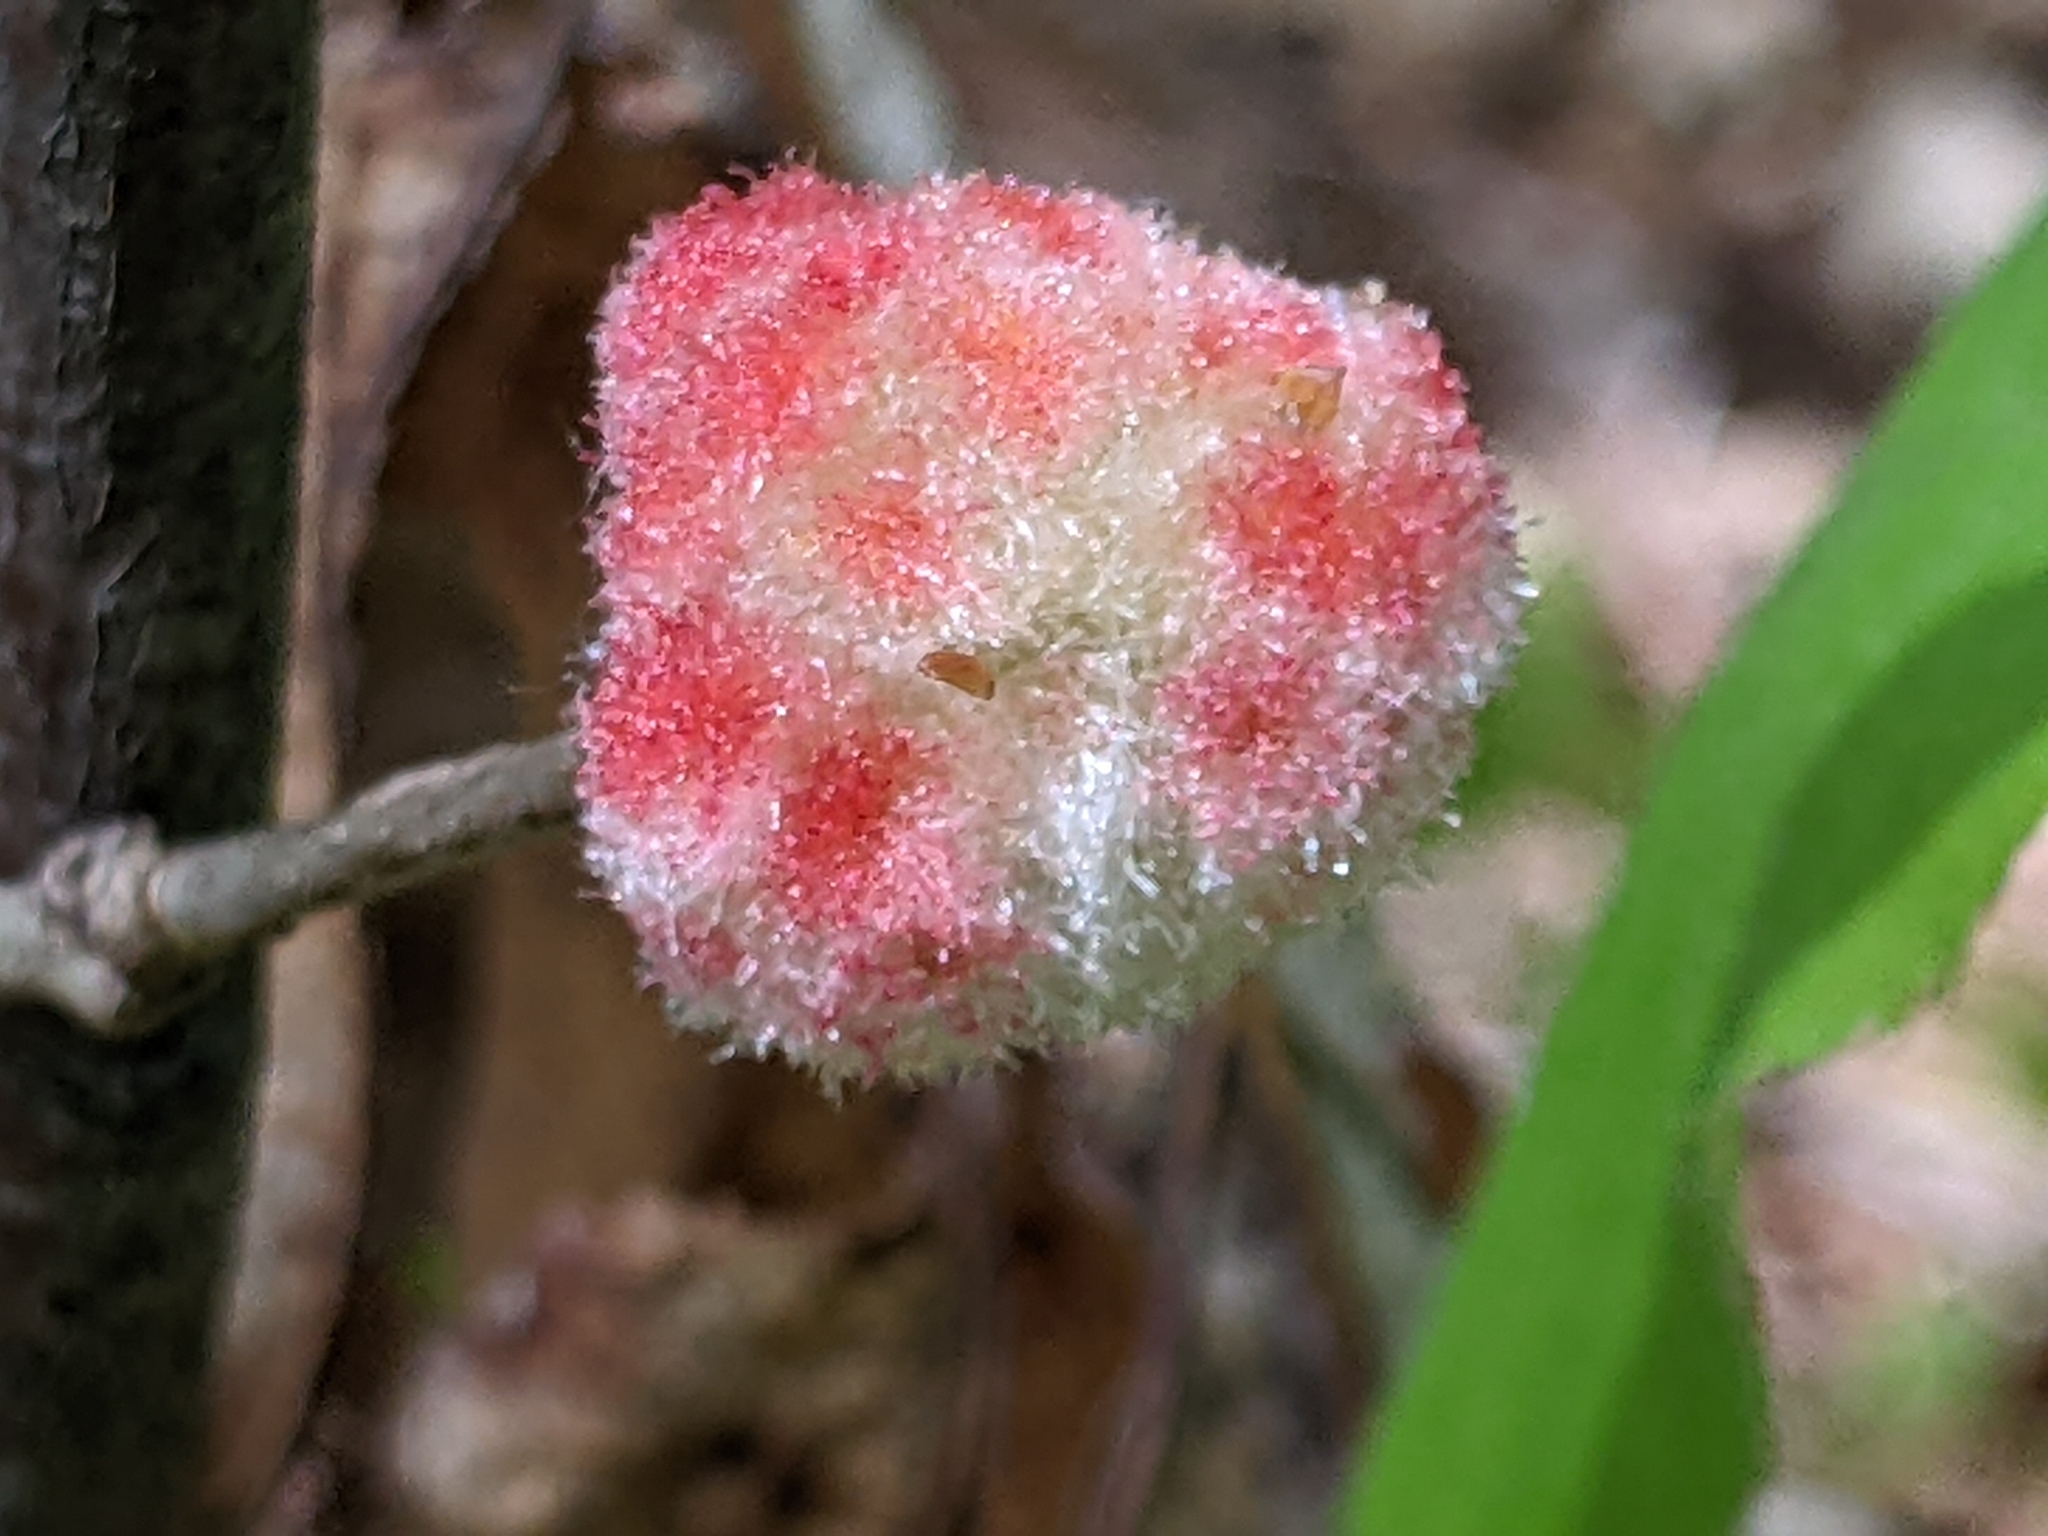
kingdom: Animalia
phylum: Arthropoda
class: Insecta
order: Hymenoptera
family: Cynipidae
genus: Callirhytis
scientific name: Callirhytis
